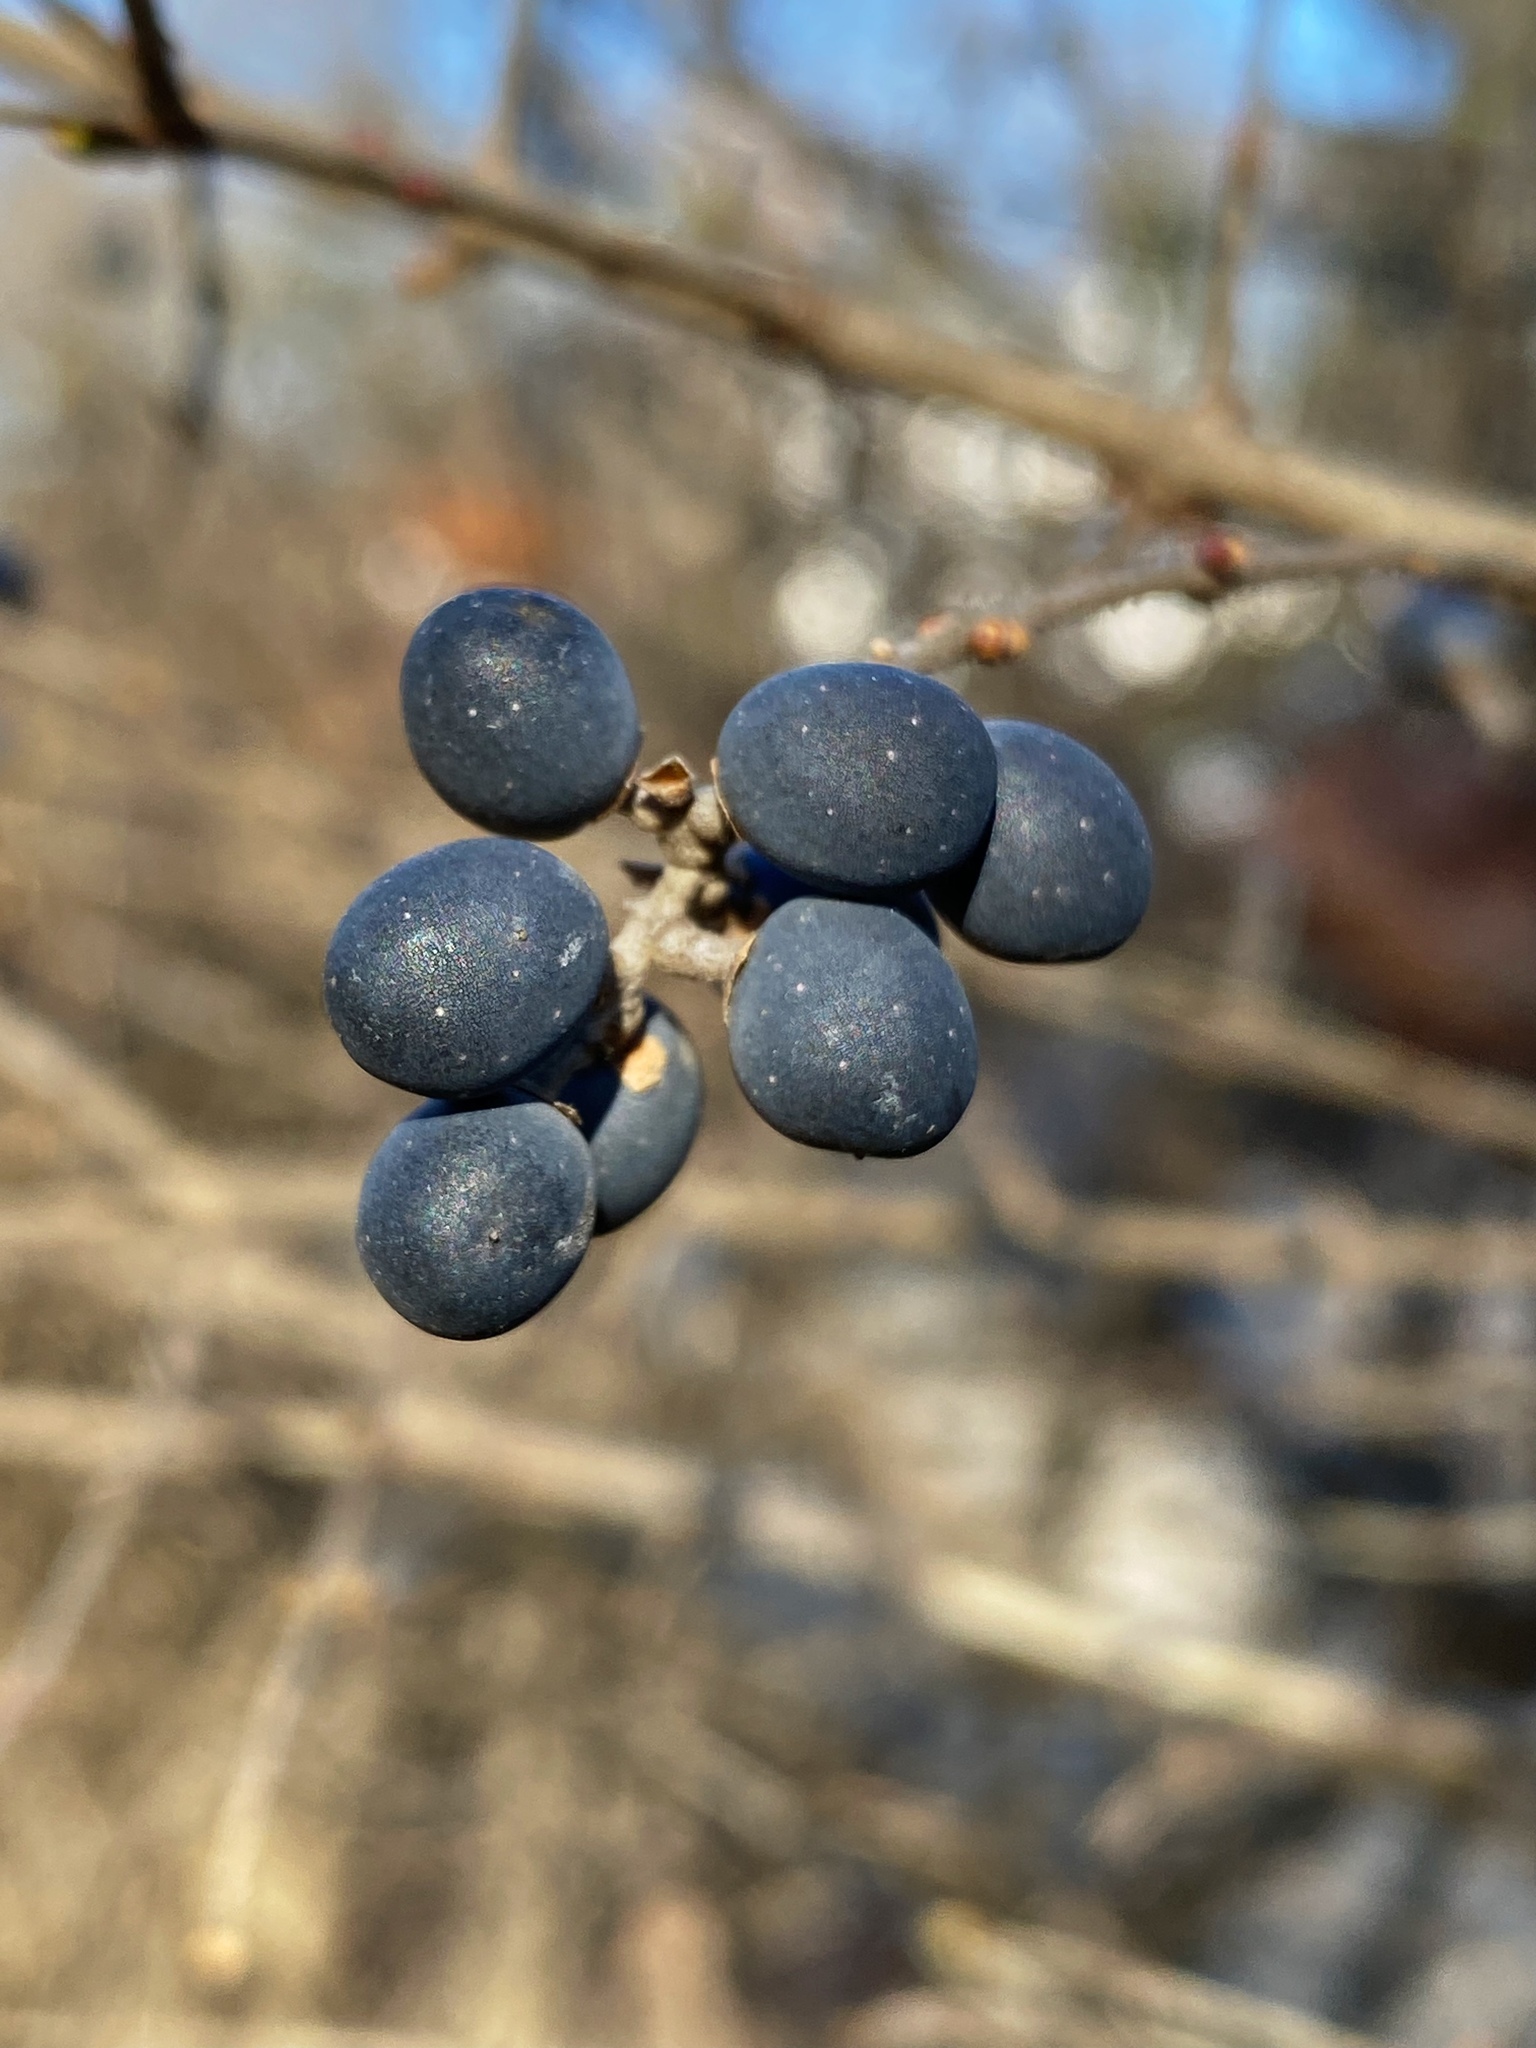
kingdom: Plantae
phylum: Tracheophyta
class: Magnoliopsida
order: Lamiales
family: Oleaceae
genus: Ligustrum
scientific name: Ligustrum obtusifolium
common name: Border privet
